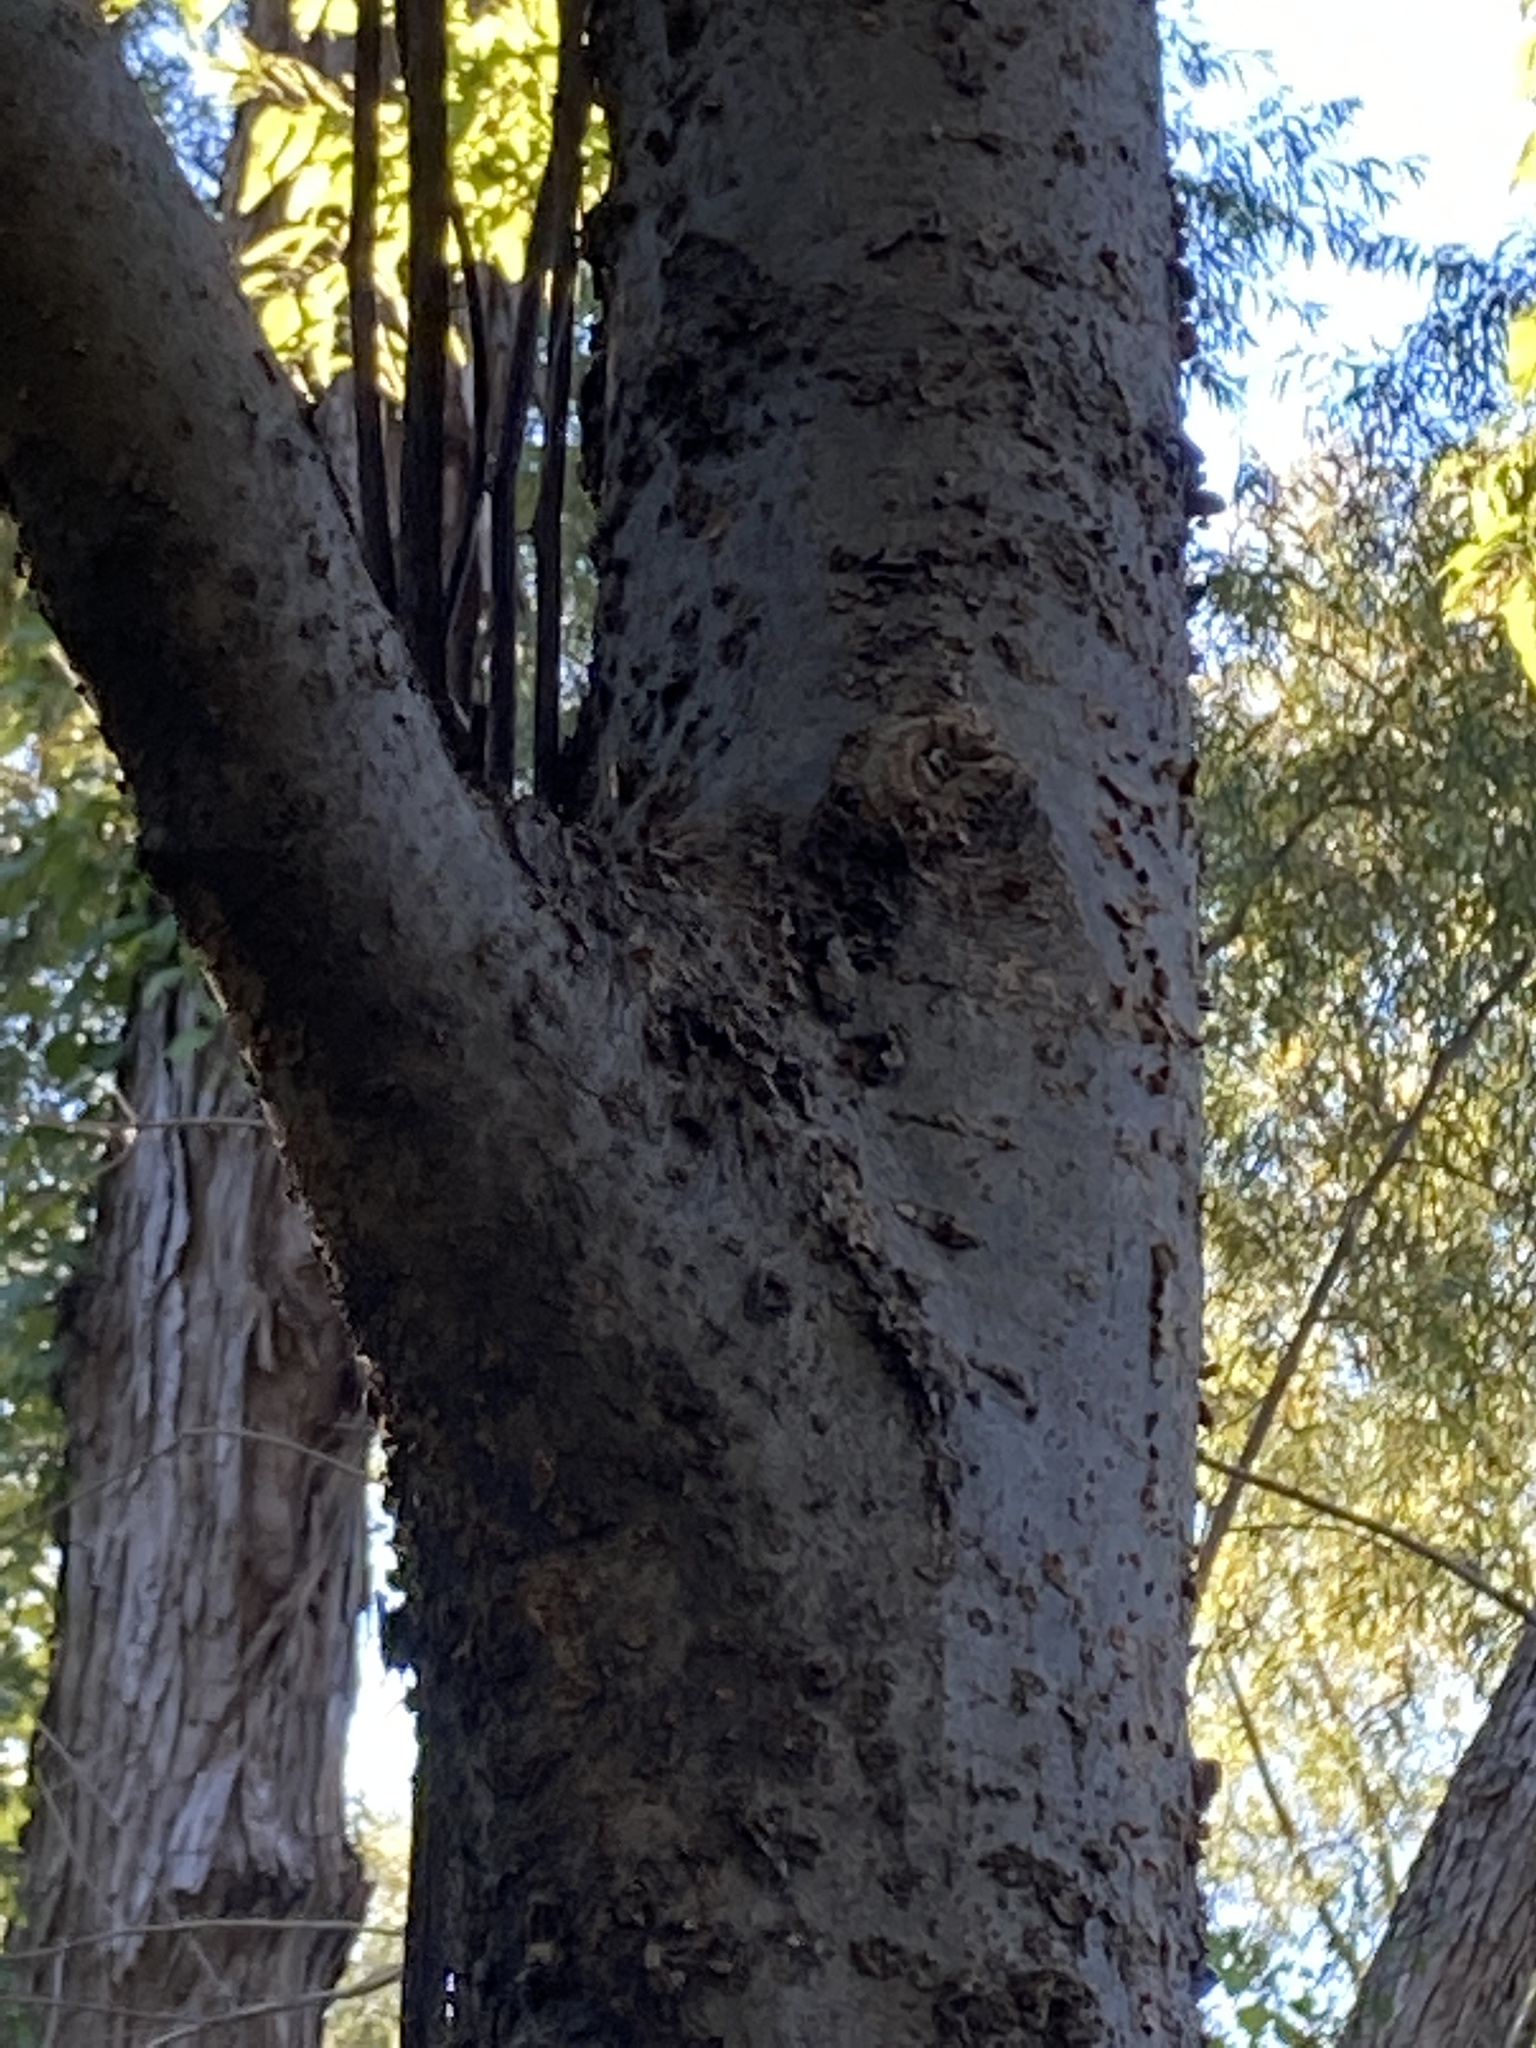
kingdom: Plantae
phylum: Tracheophyta
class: Magnoliopsida
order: Rosales
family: Cannabaceae
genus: Celtis
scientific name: Celtis laevigata
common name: Sugarberry
